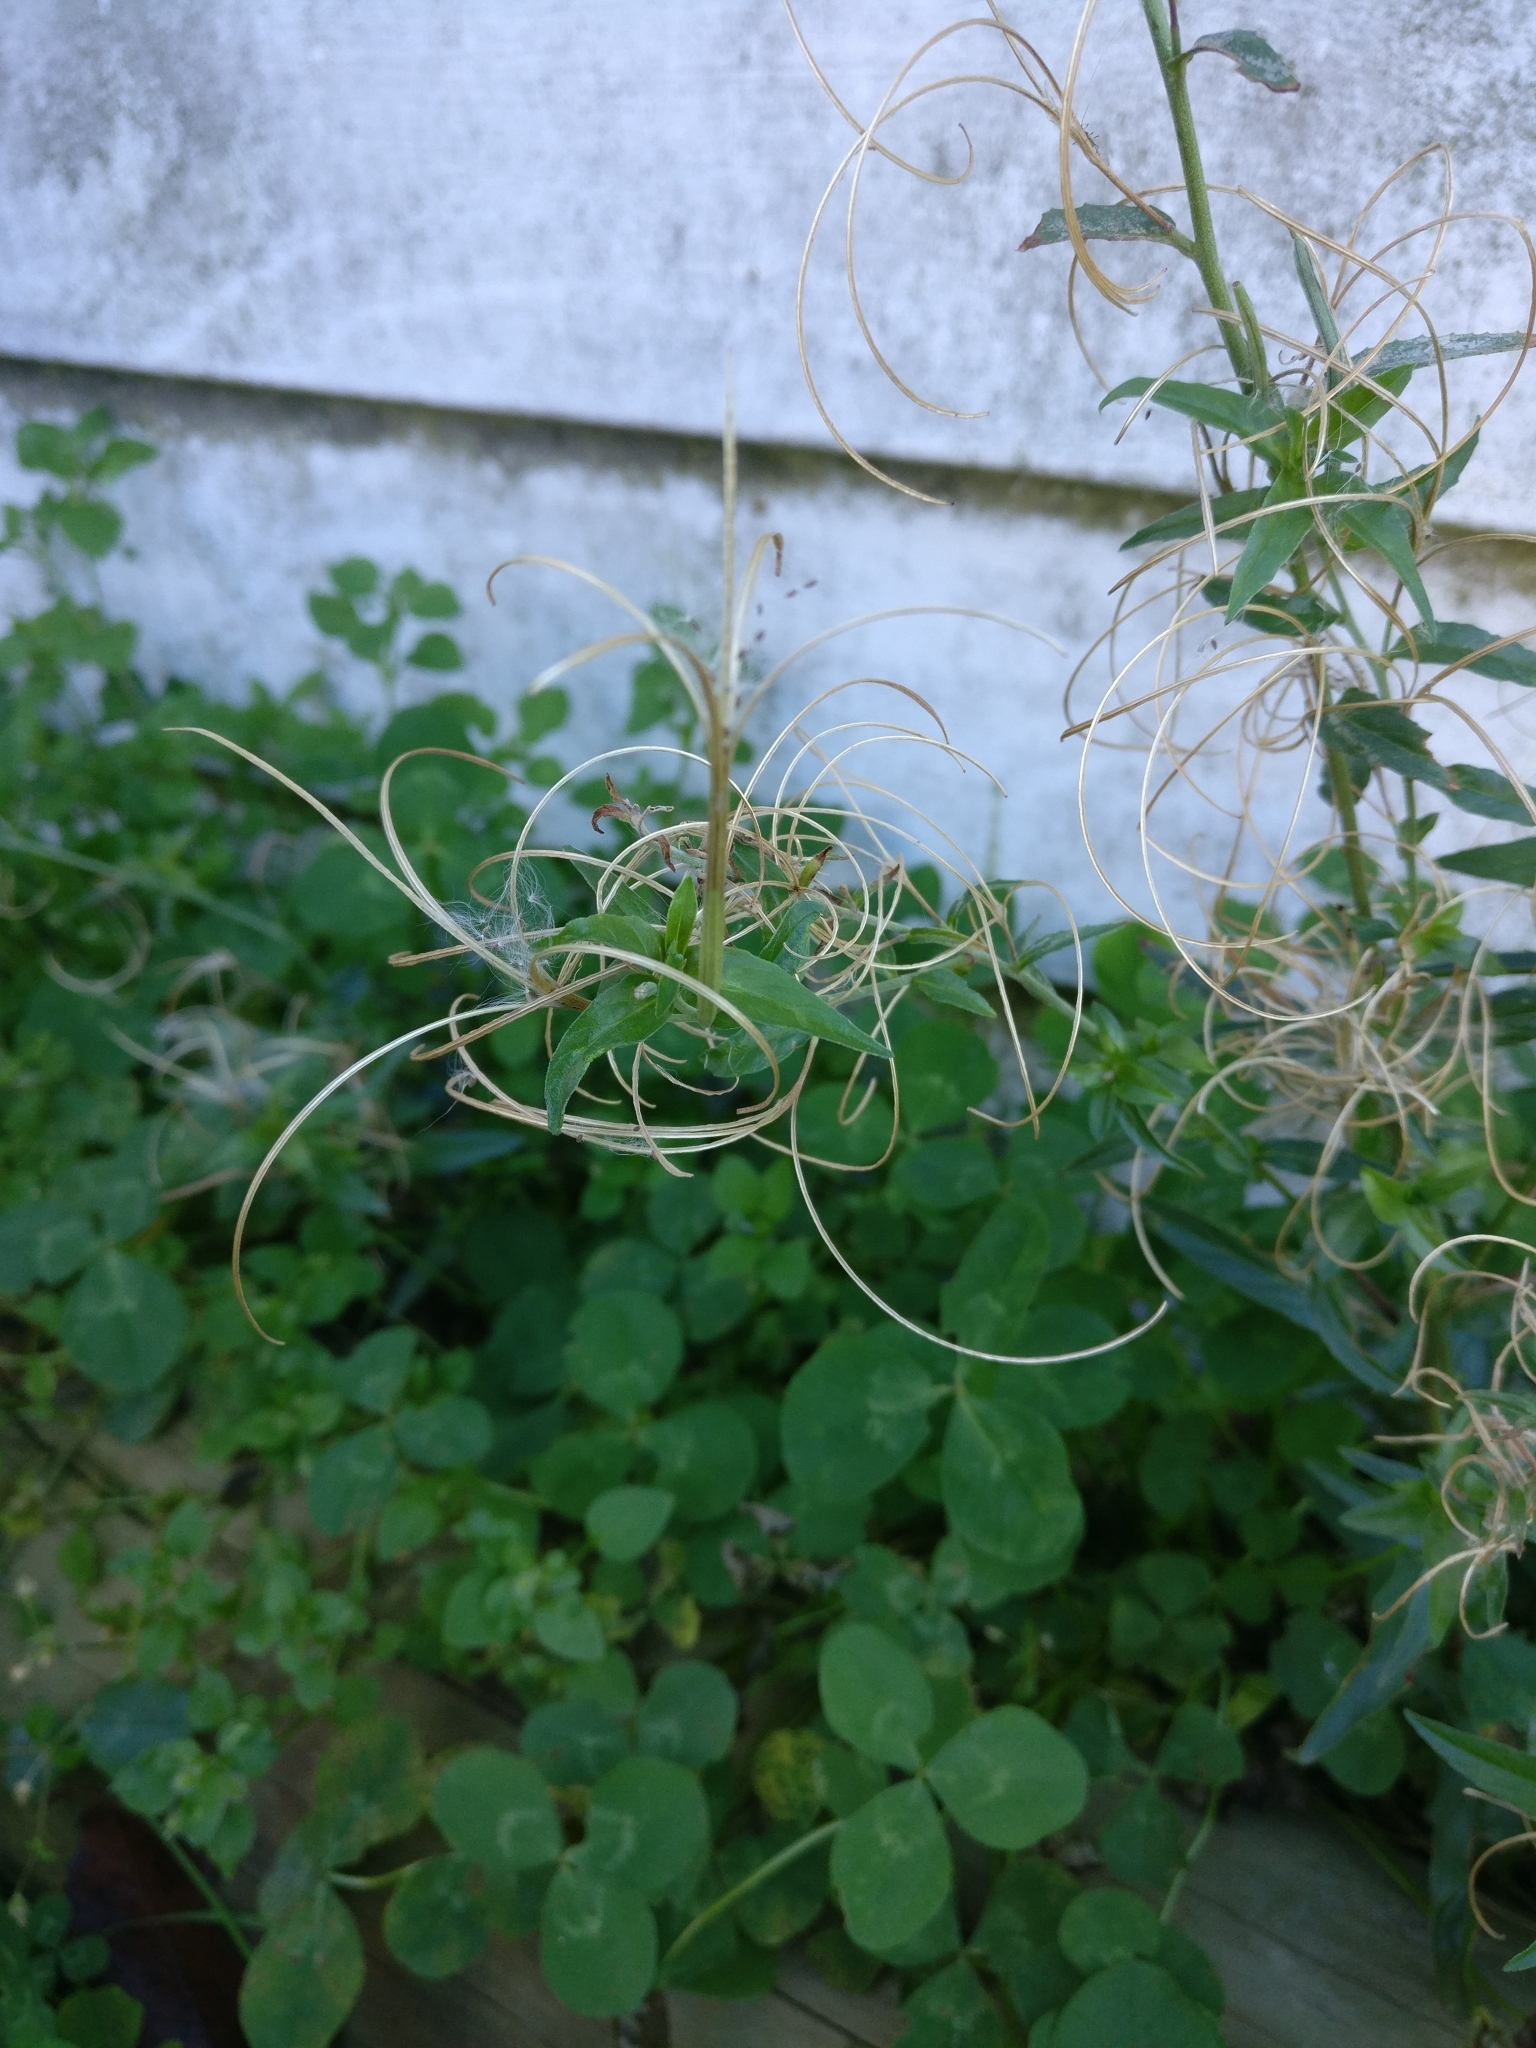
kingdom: Plantae
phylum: Tracheophyta
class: Magnoliopsida
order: Myrtales
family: Onagraceae
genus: Epilobium
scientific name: Epilobium ciliatum
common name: American willowherb
